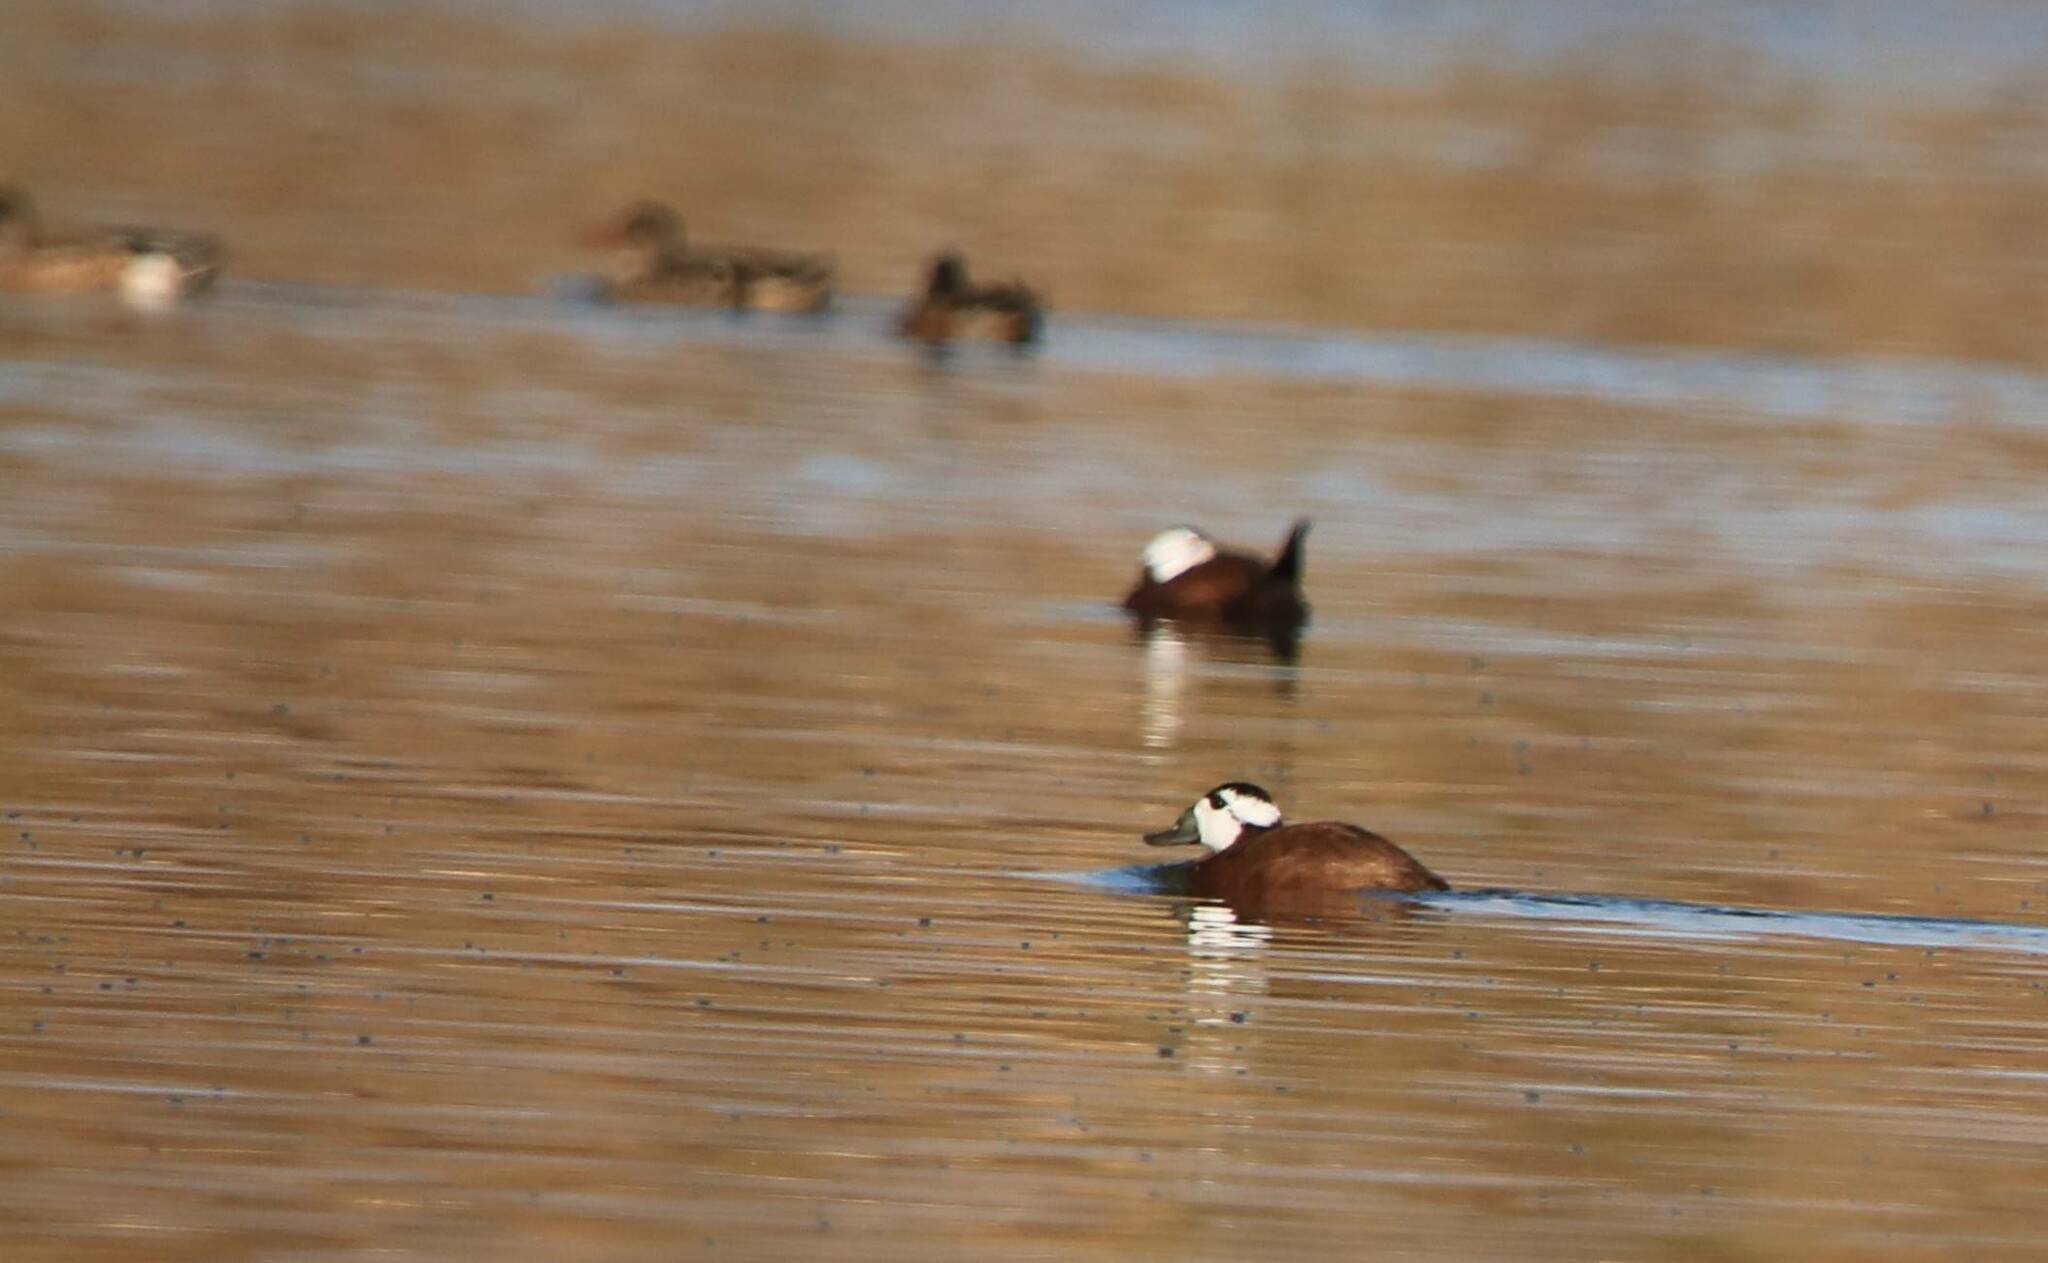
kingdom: Animalia
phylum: Chordata
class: Aves
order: Anseriformes
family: Anatidae
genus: Oxyura
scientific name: Oxyura leucocephala
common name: White-headed duck
